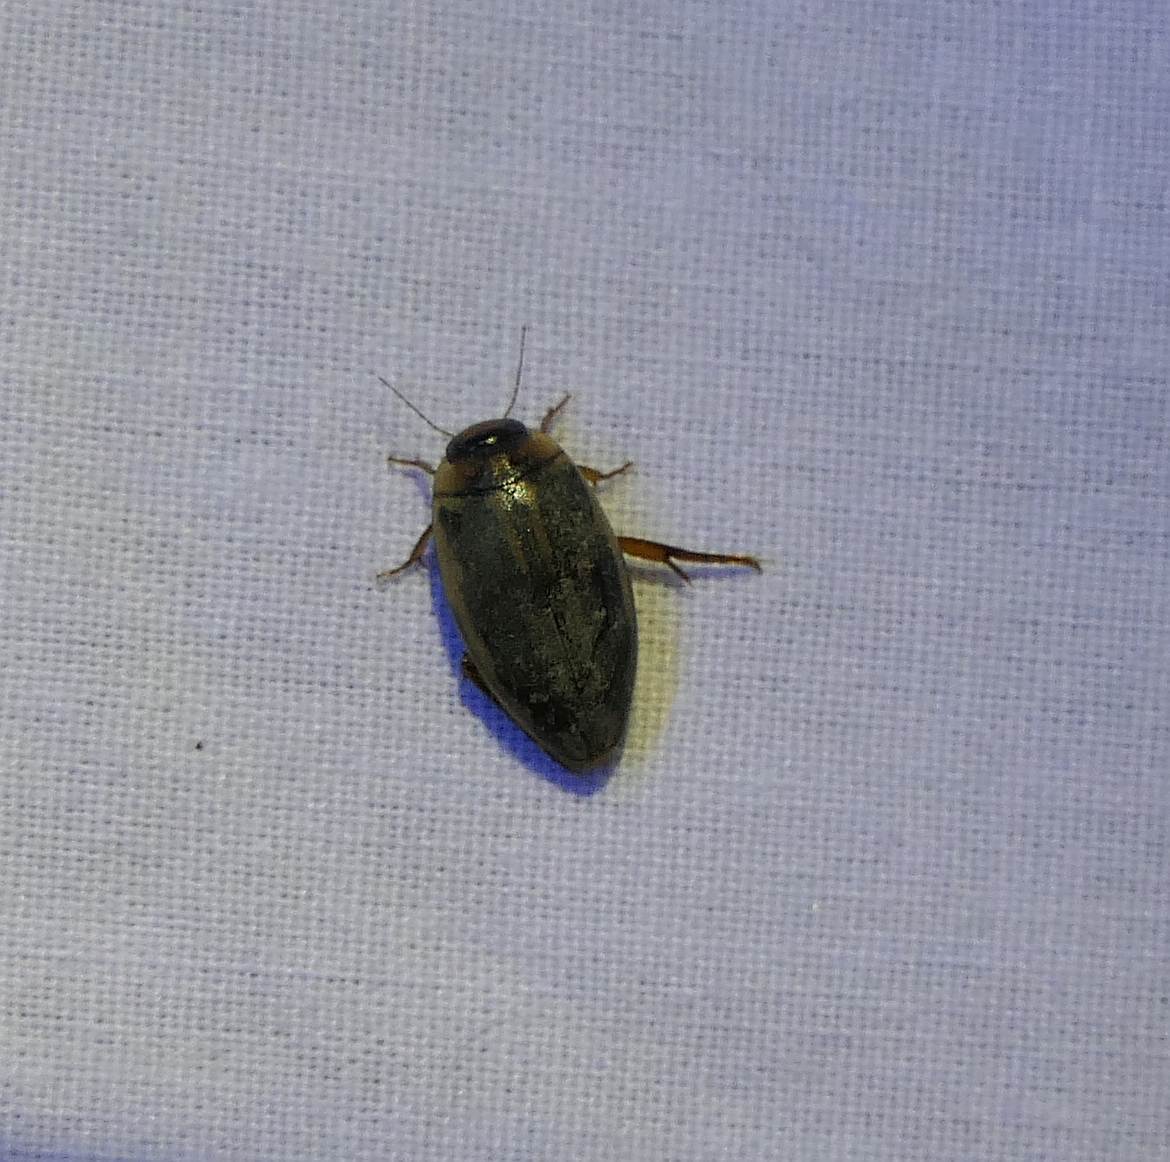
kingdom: Animalia
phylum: Arthropoda
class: Insecta
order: Coleoptera
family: Dytiscidae
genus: Coptotomus
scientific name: Coptotomus longulus
